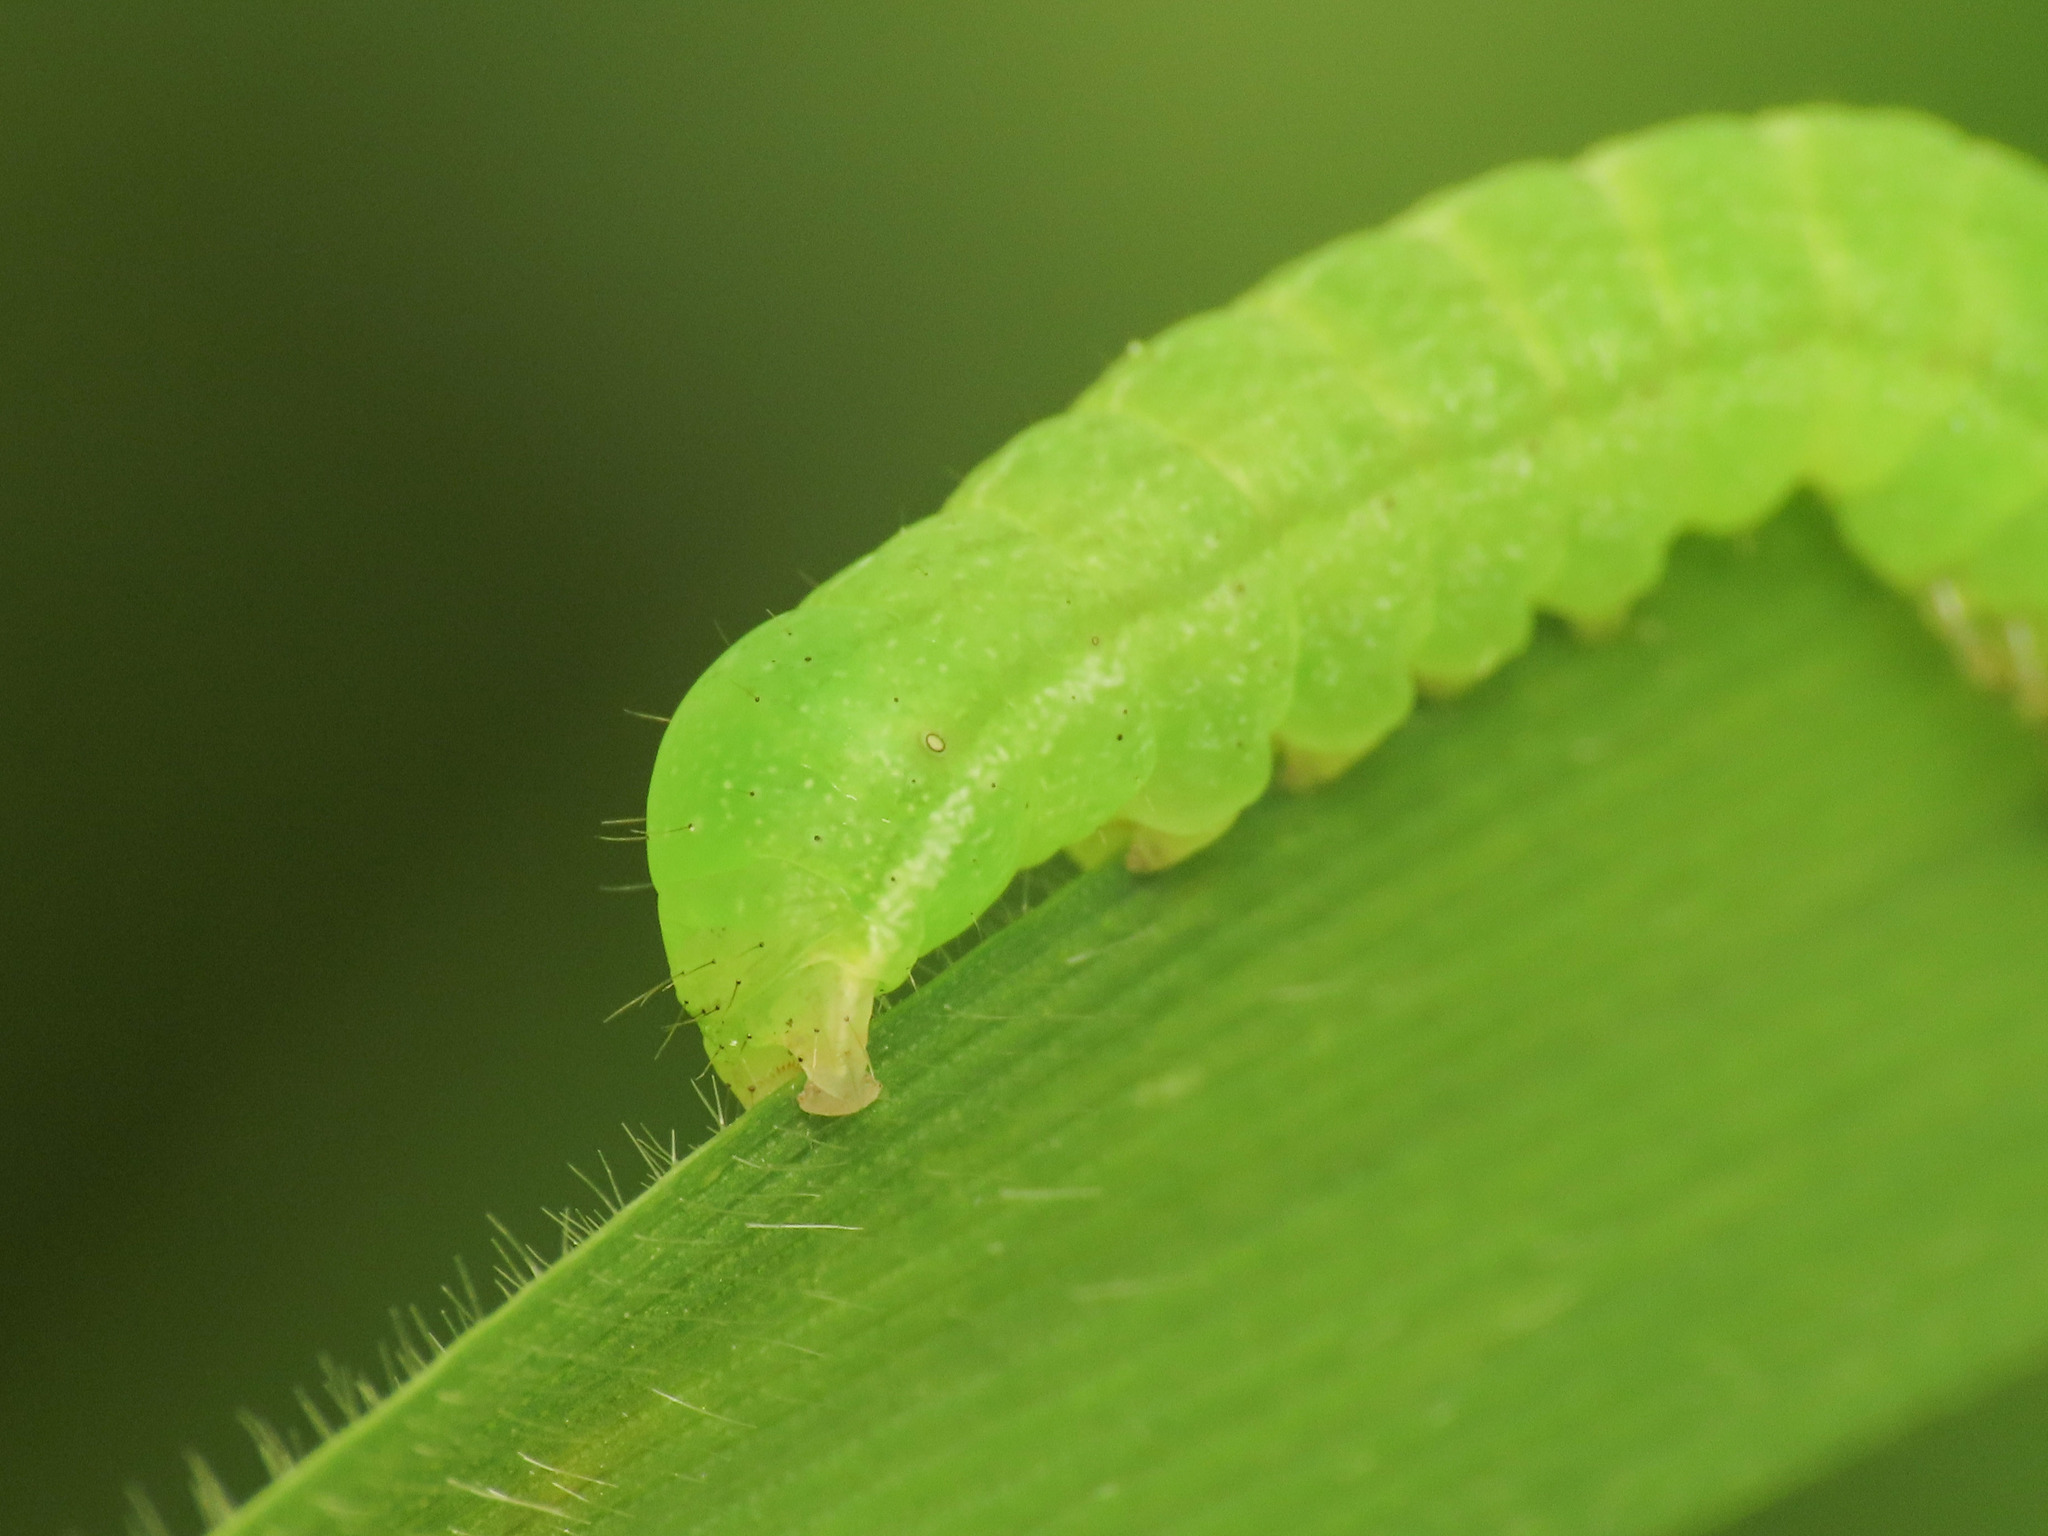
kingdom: Animalia
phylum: Arthropoda
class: Insecta
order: Lepidoptera
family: Noctuidae
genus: Phlogophora
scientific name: Phlogophora meticulosa
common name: Angle shades
